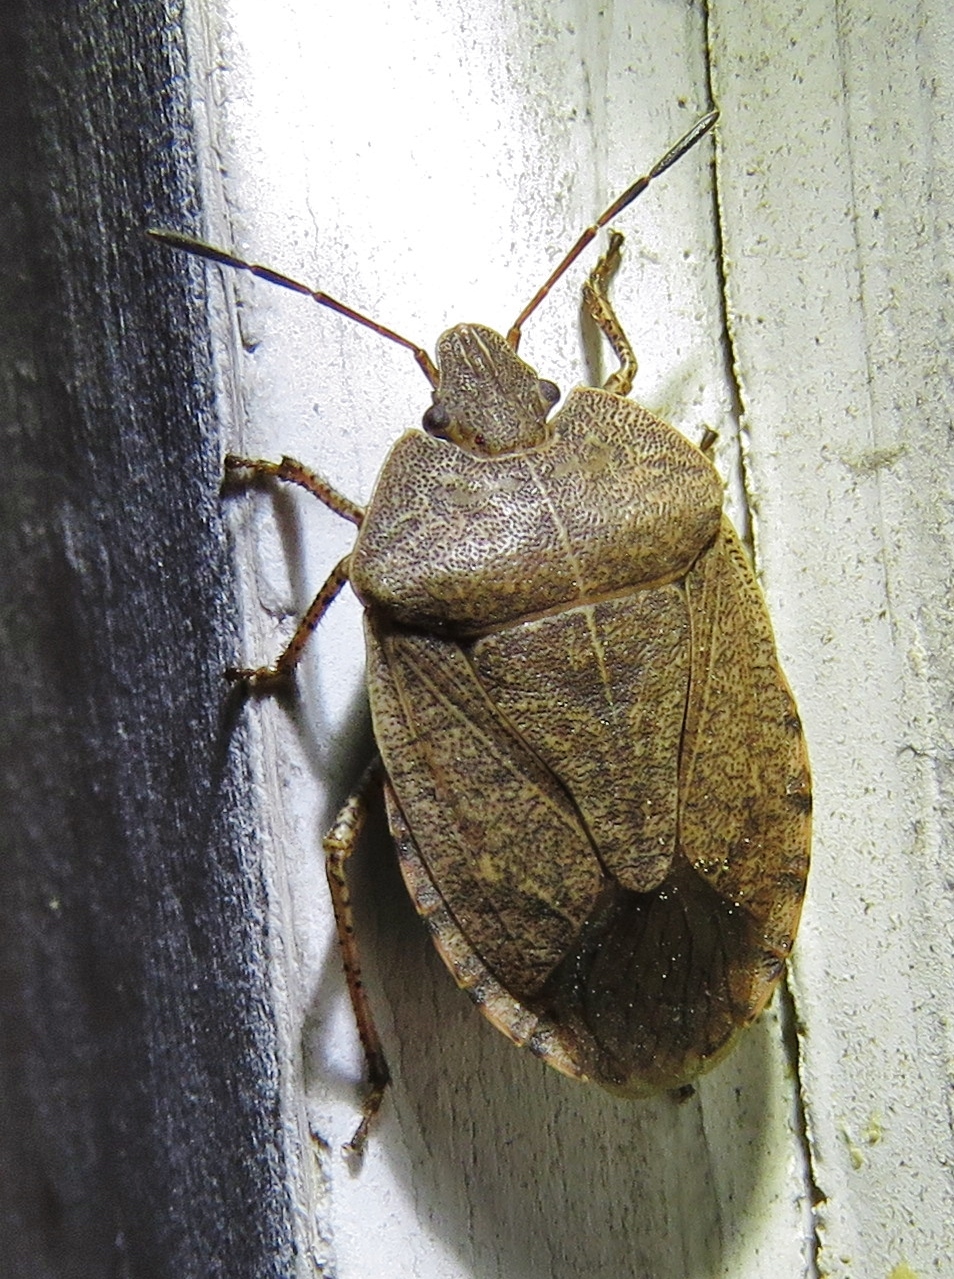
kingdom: Animalia
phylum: Arthropoda
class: Insecta
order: Hemiptera
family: Pentatomidae
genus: Menecles
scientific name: Menecles insertus
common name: Elf shoe stink bug
